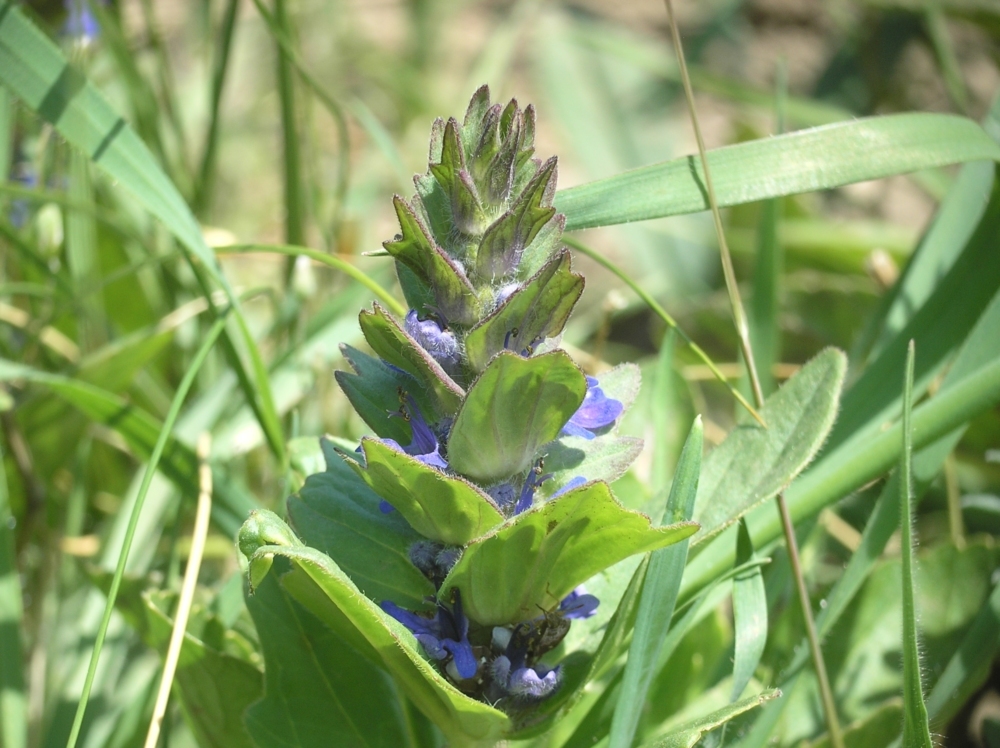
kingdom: Plantae
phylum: Tracheophyta
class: Magnoliopsida
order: Lamiales
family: Lamiaceae
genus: Ajuga
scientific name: Ajuga genevensis
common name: Blue bugle
